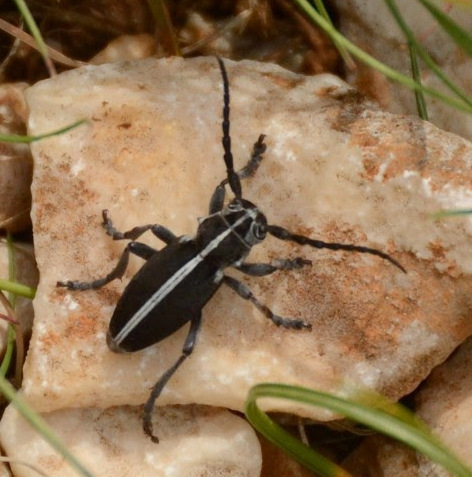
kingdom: Animalia
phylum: Arthropoda
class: Insecta
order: Coleoptera
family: Cerambycidae
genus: Dorcadion
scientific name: Dorcadion arenarium
